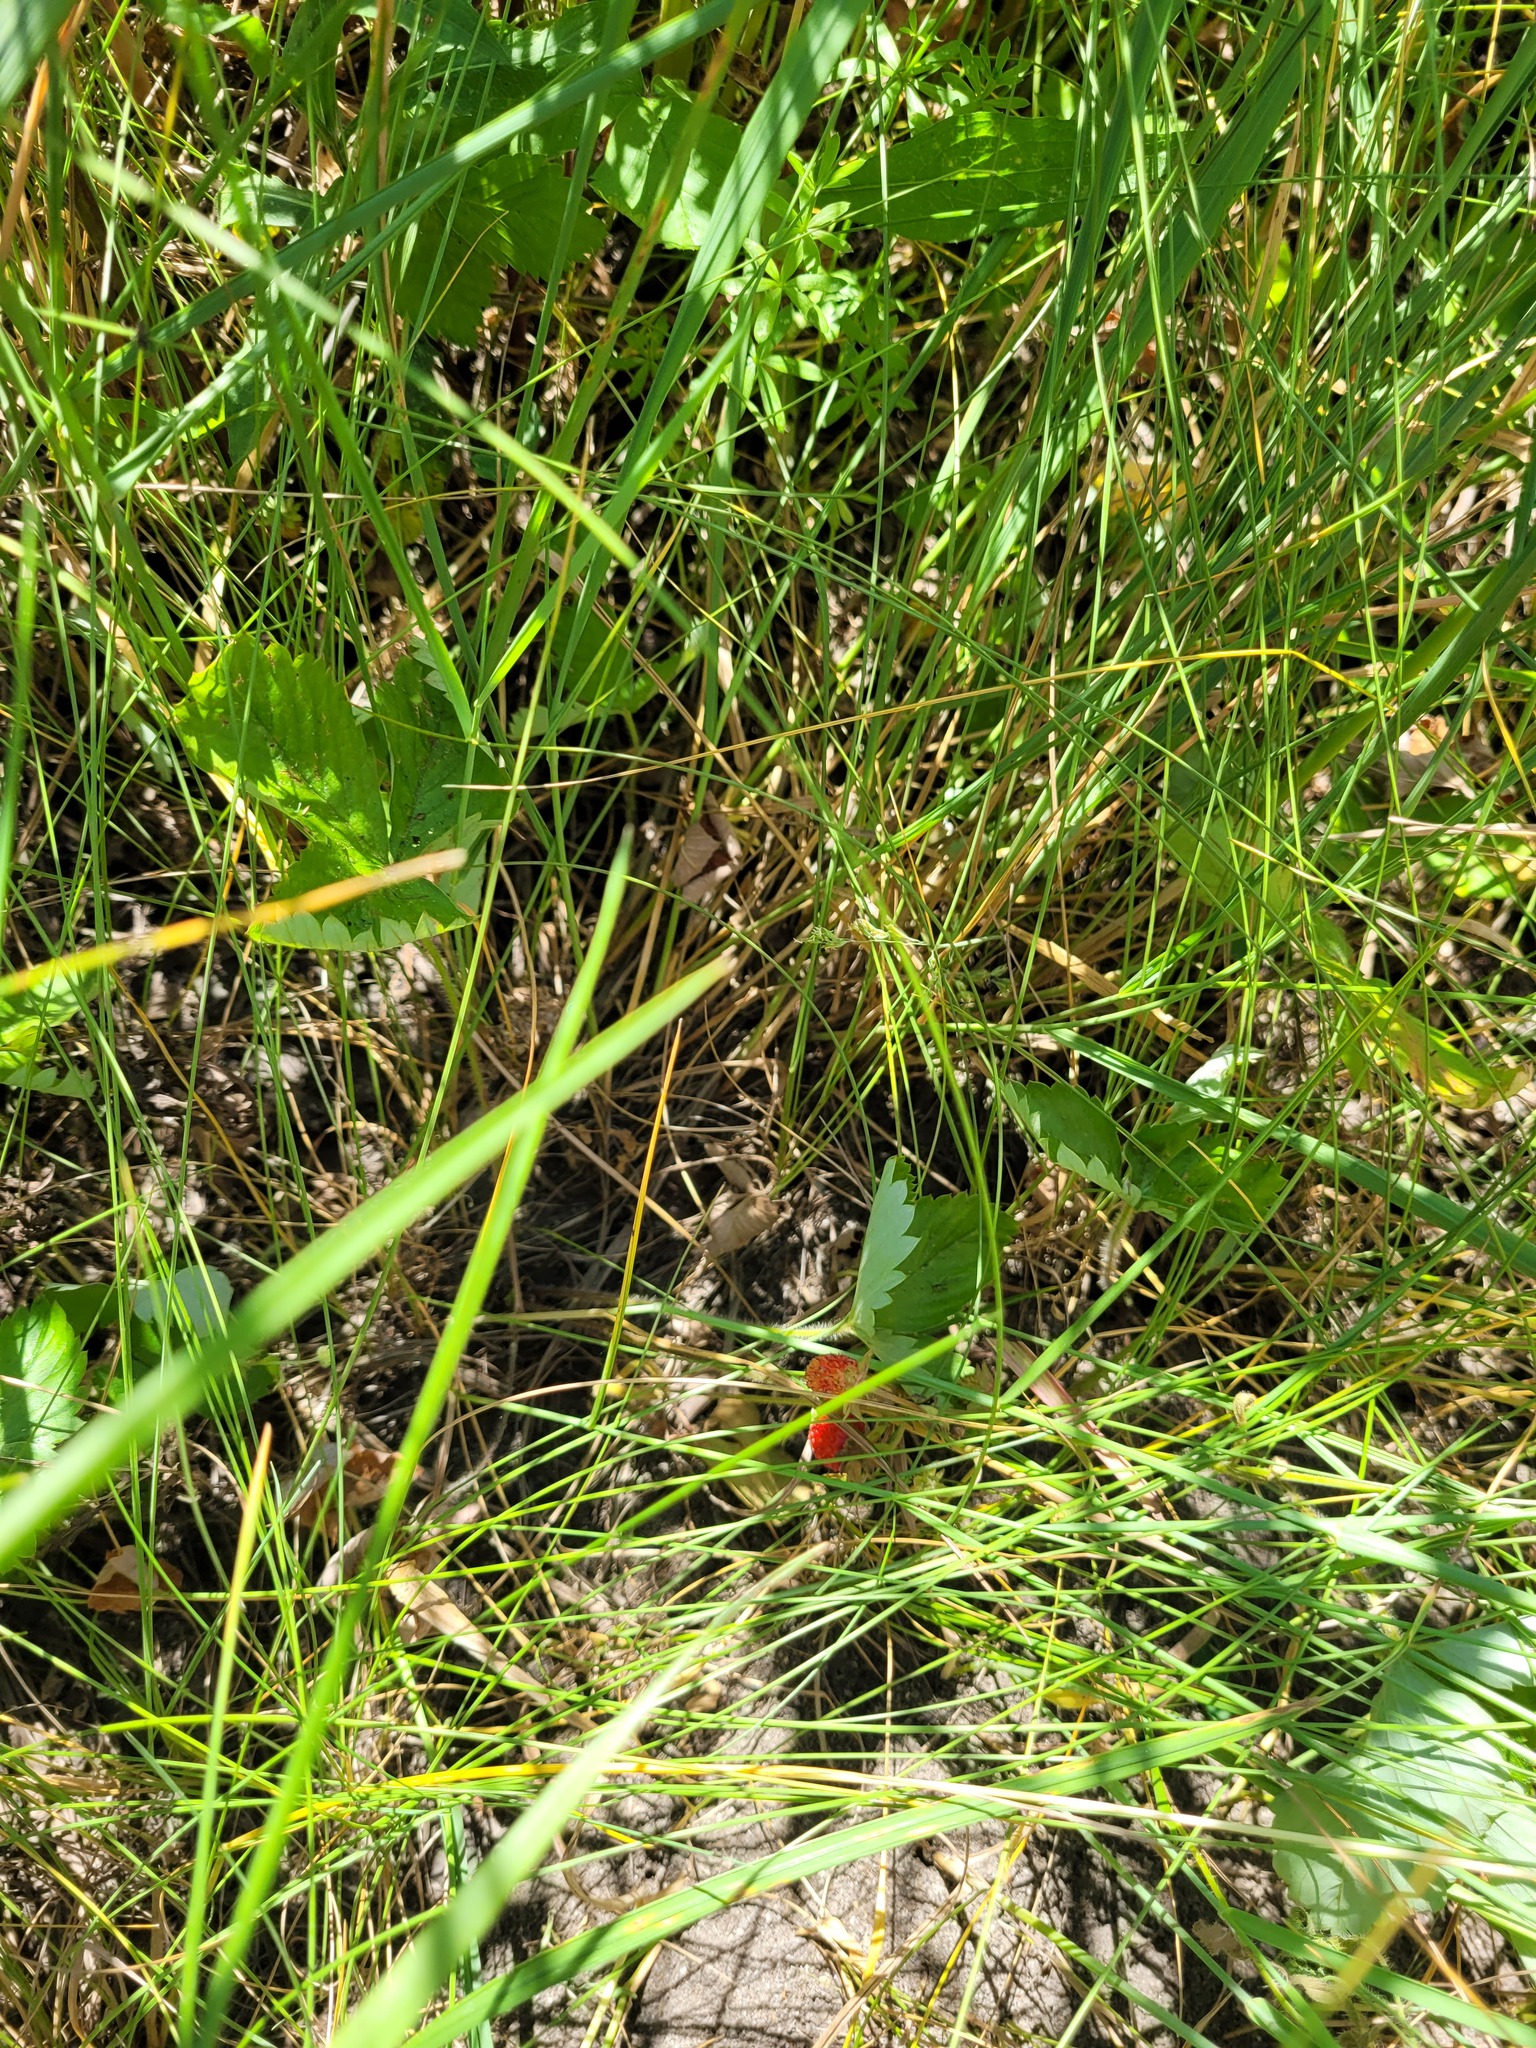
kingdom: Plantae
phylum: Tracheophyta
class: Magnoliopsida
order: Rosales
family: Rosaceae
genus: Fragaria
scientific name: Fragaria vesca
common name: Wild strawberry
